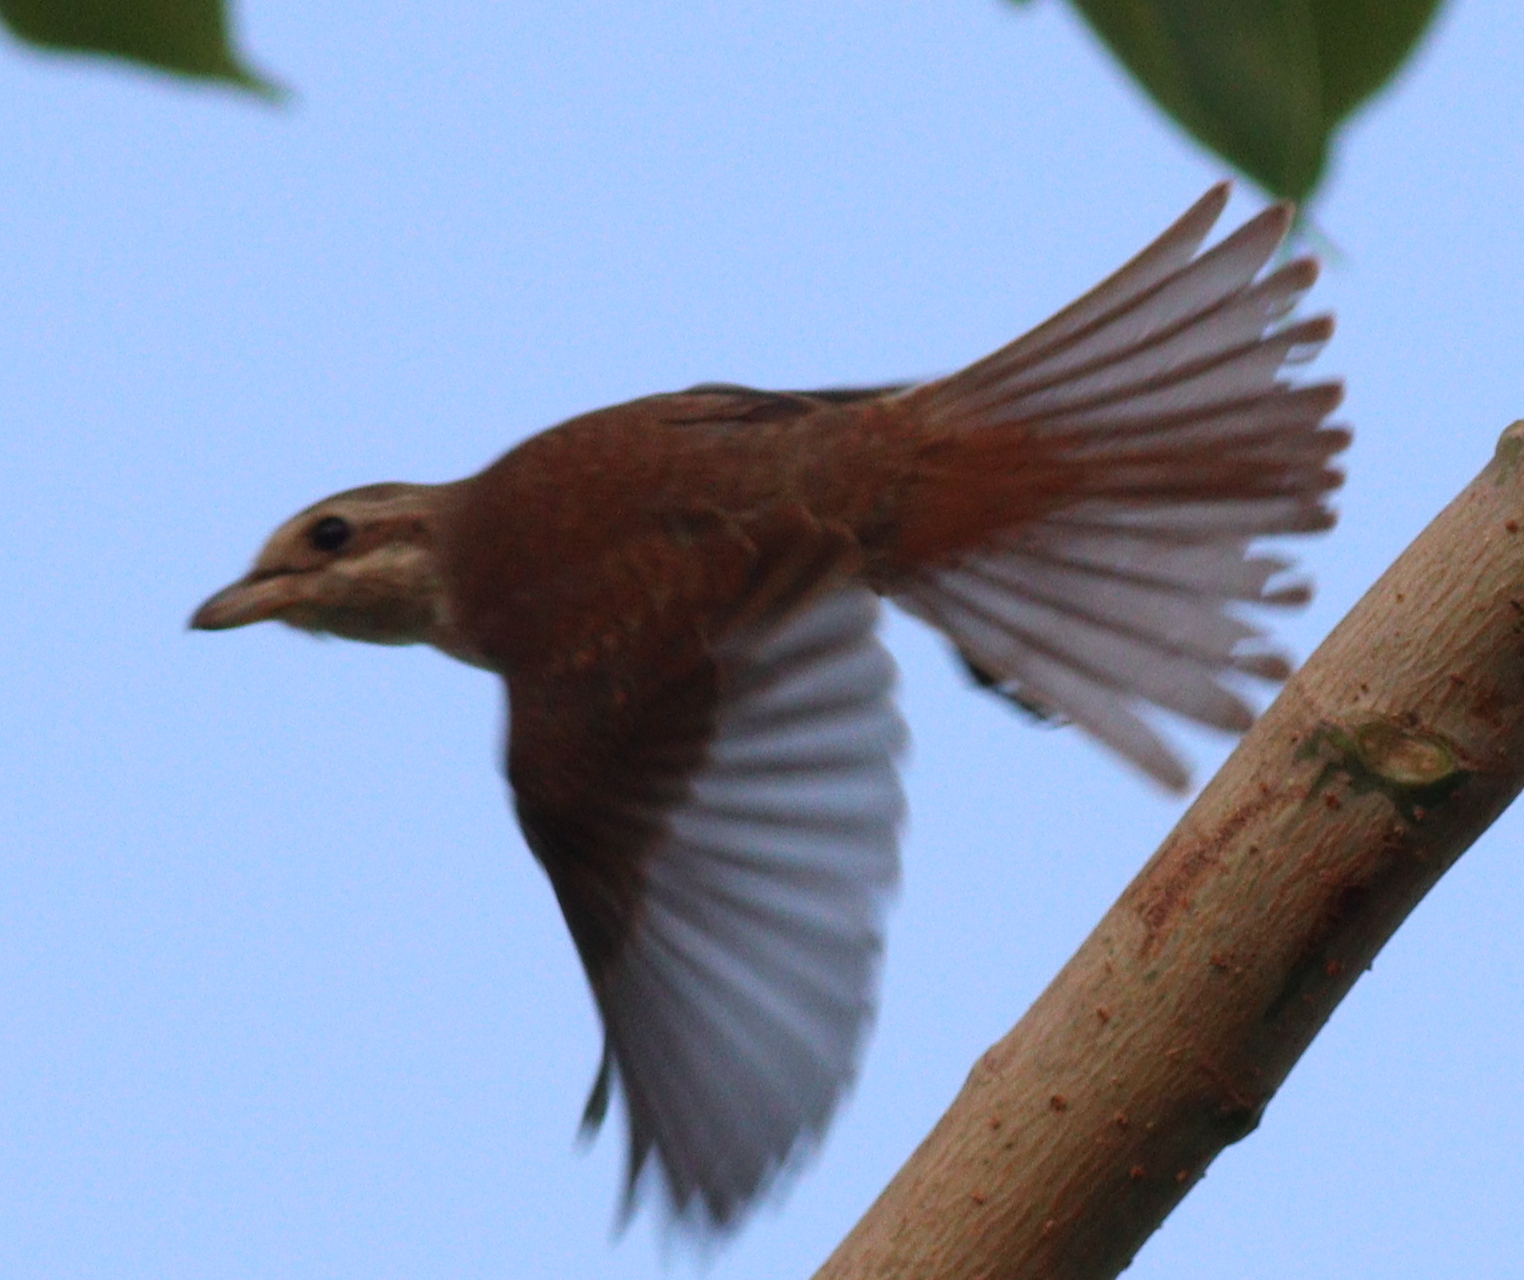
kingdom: Animalia
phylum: Chordata
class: Aves
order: Passeriformes
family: Laniidae
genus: Lanius
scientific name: Lanius collurio
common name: Red-backed shrike
